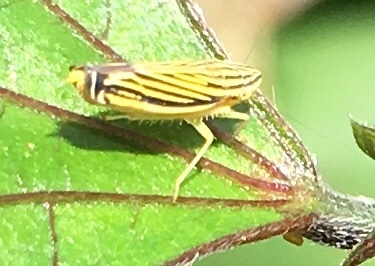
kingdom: Animalia
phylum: Arthropoda
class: Insecta
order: Hemiptera
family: Cicadellidae
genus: Sibovia
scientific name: Sibovia occatoria
